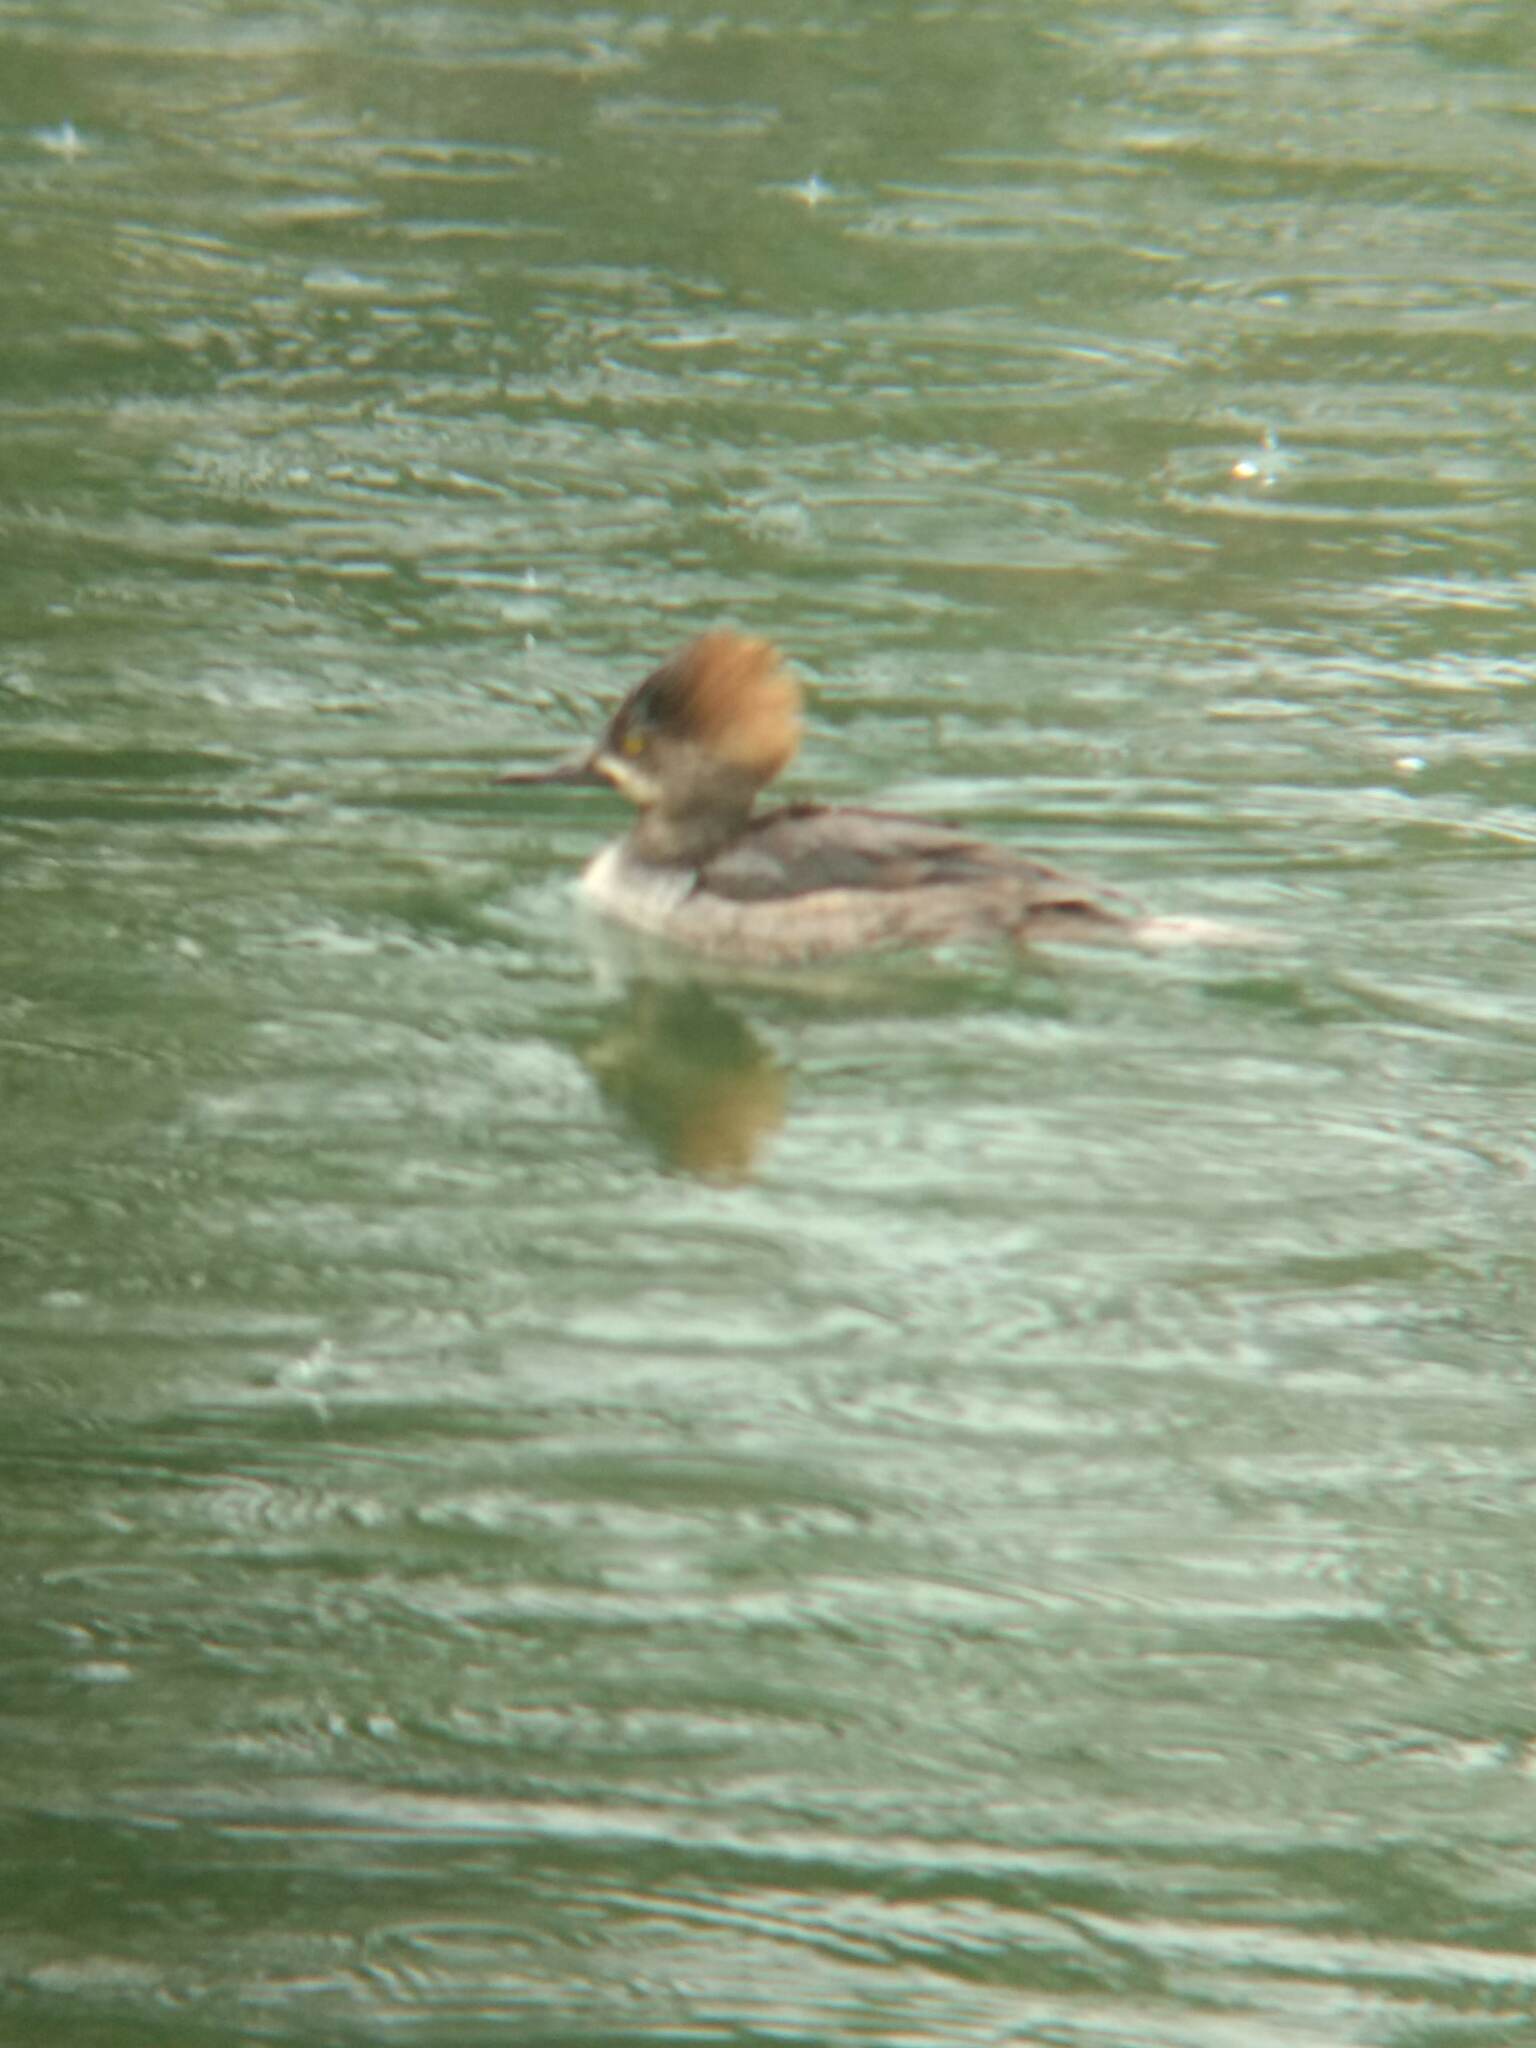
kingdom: Animalia
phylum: Chordata
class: Aves
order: Anseriformes
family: Anatidae
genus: Lophodytes
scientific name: Lophodytes cucullatus
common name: Hooded merganser
